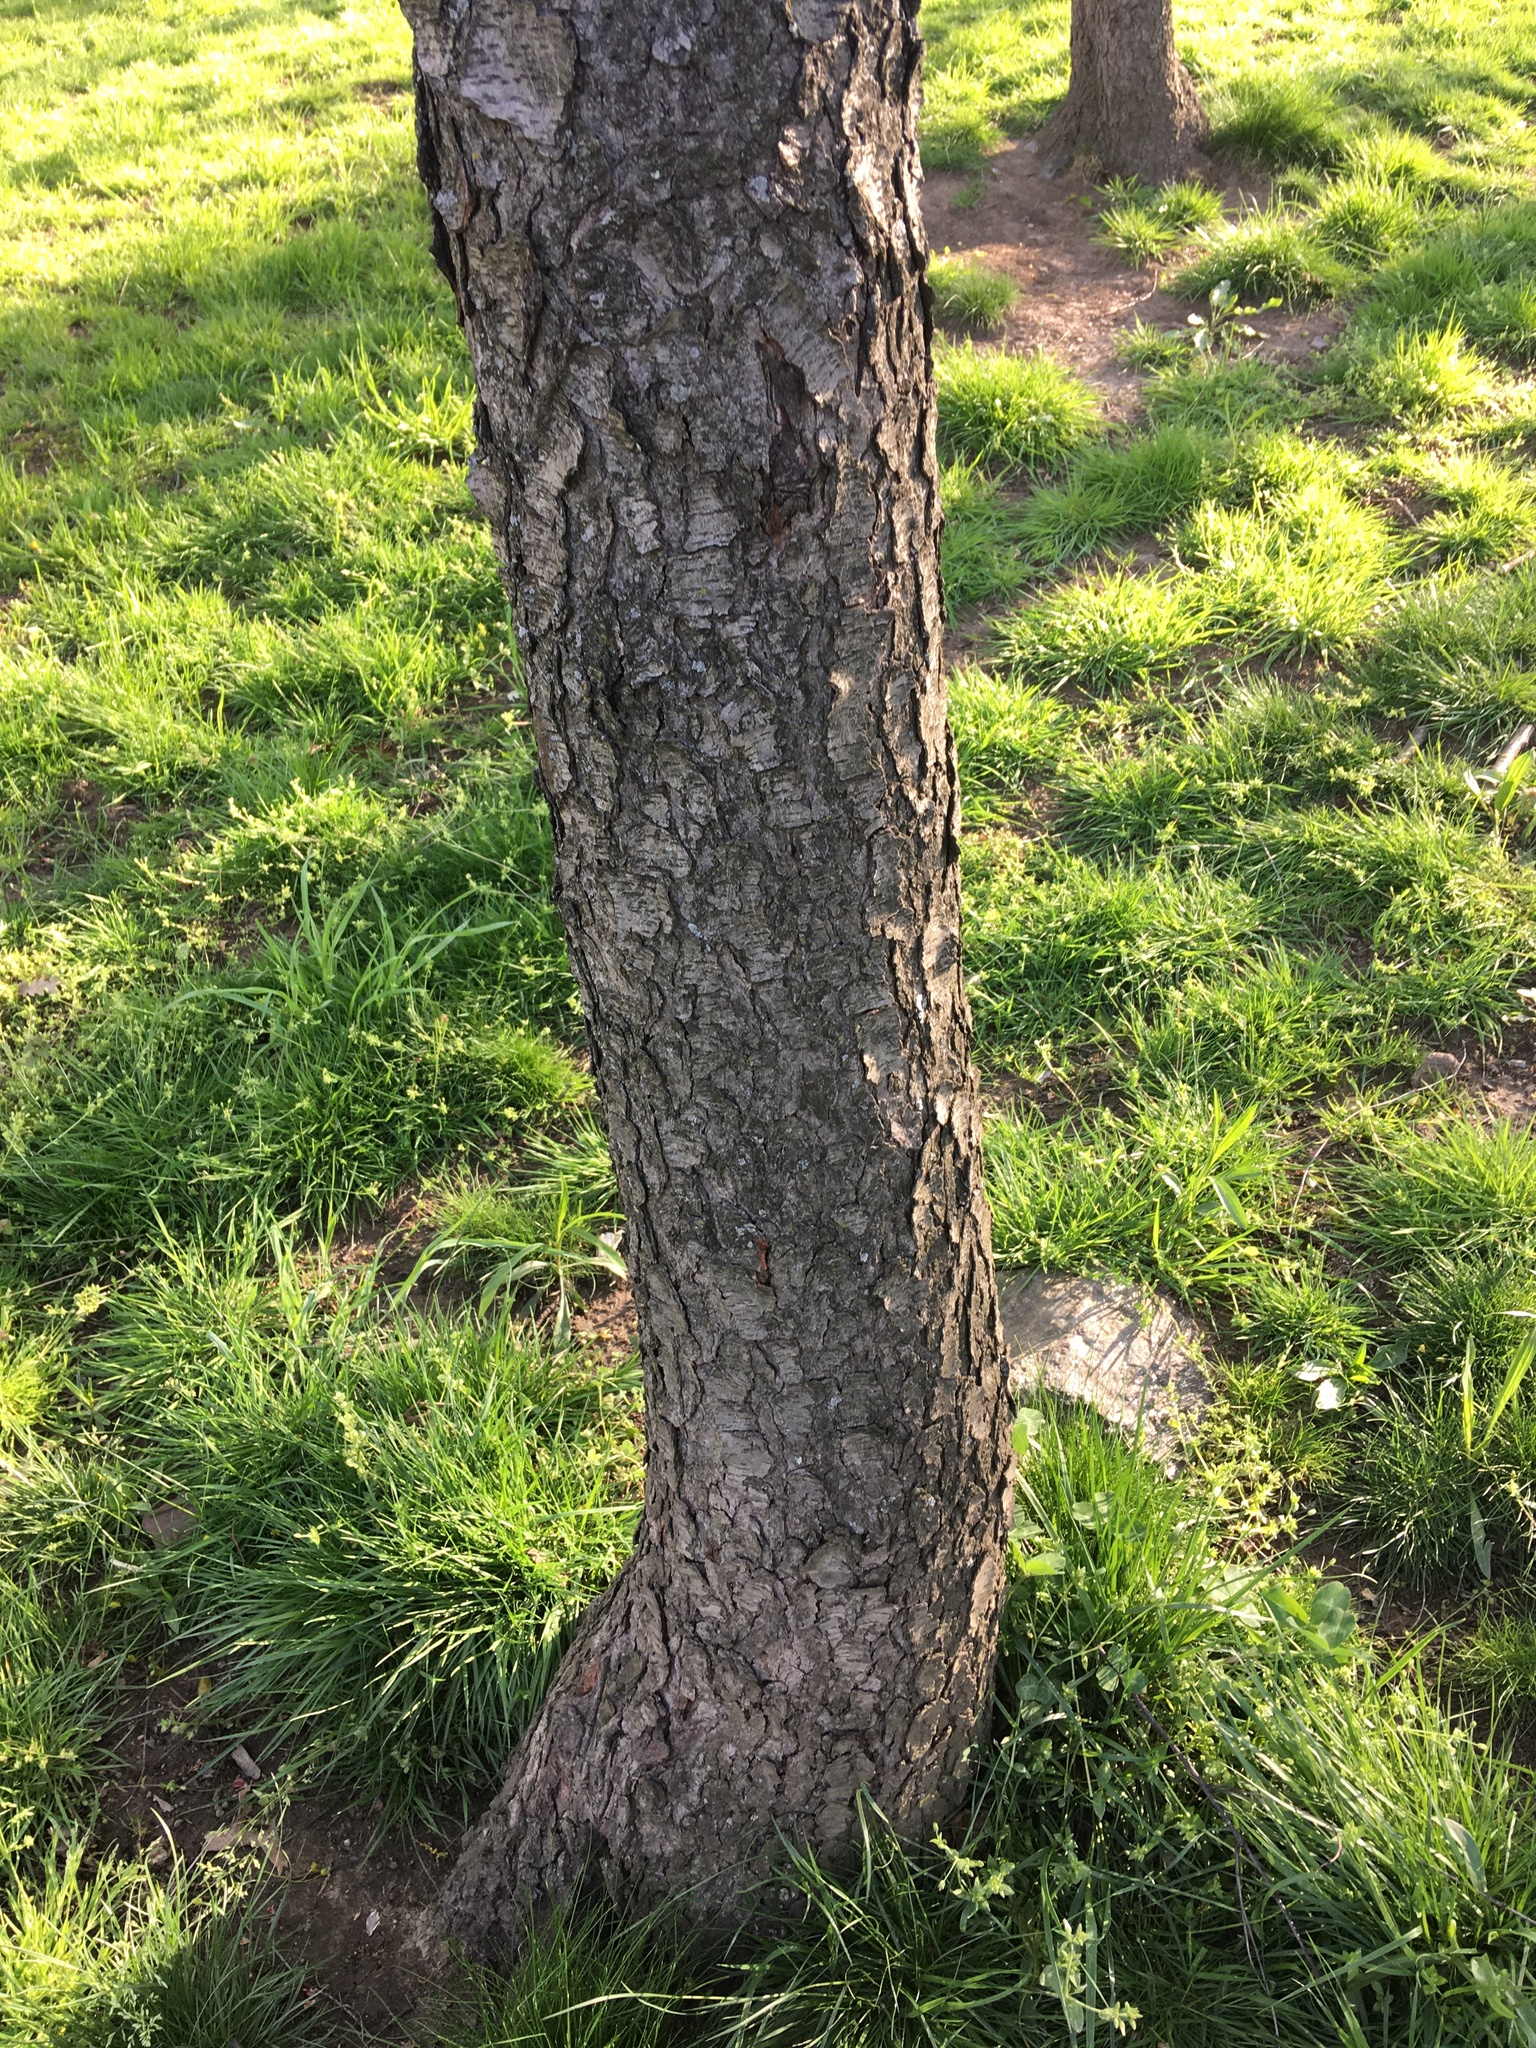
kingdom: Plantae
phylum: Tracheophyta
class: Magnoliopsida
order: Rosales
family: Rosaceae
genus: Prunus
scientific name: Prunus serotina
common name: Black cherry
